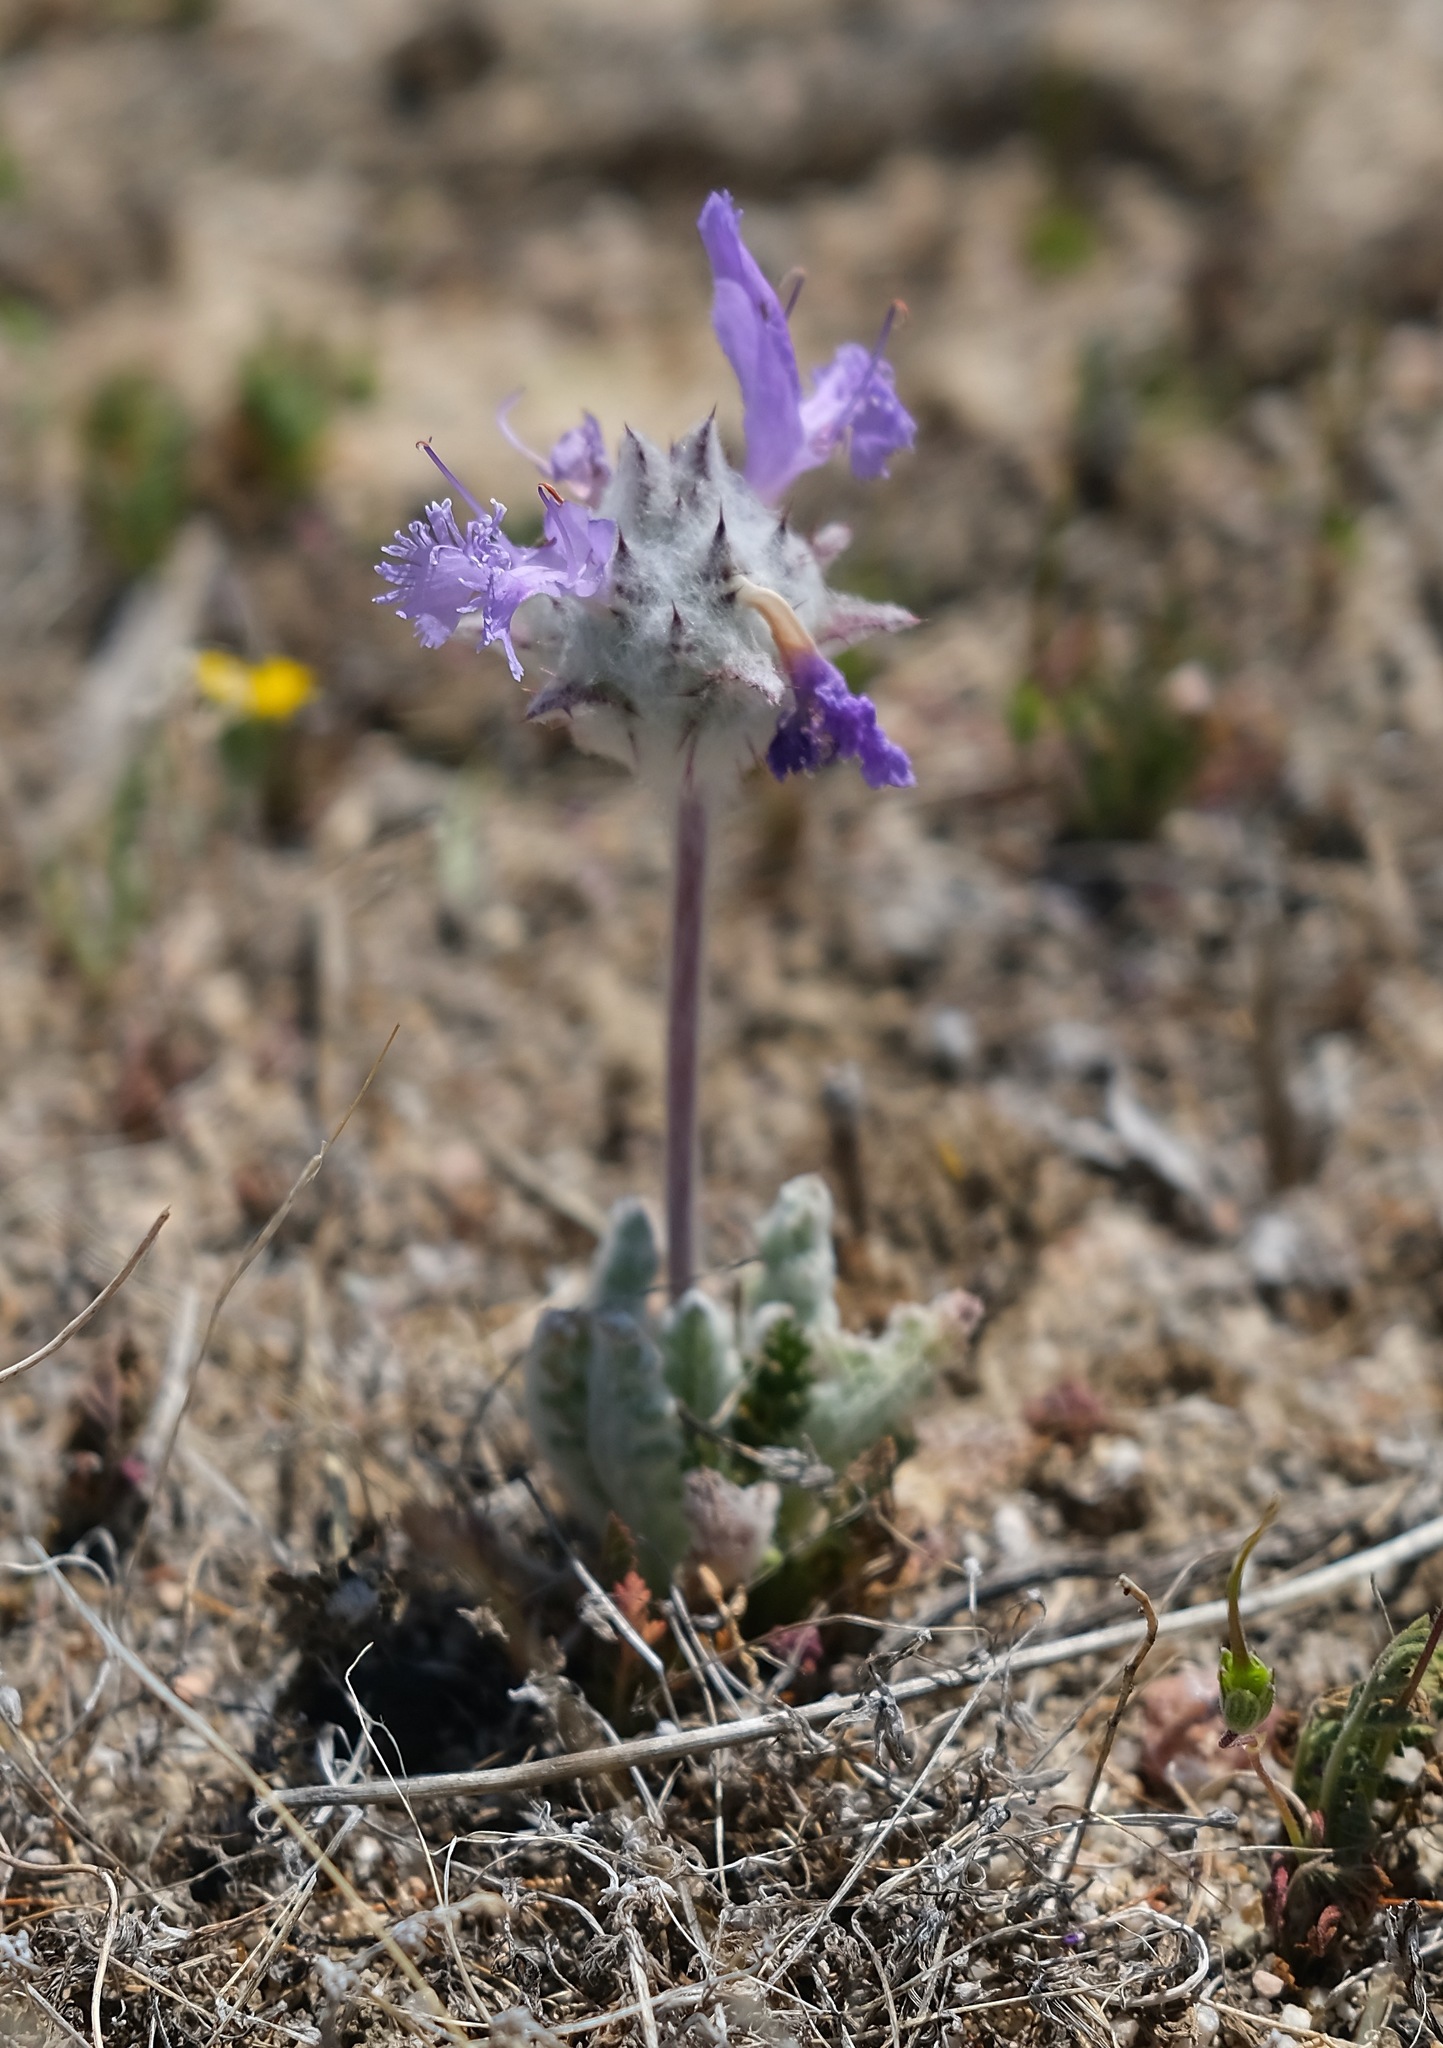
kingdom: Plantae
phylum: Tracheophyta
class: Magnoliopsida
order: Lamiales
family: Lamiaceae
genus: Salvia
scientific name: Salvia carduacea
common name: Thistle sage
